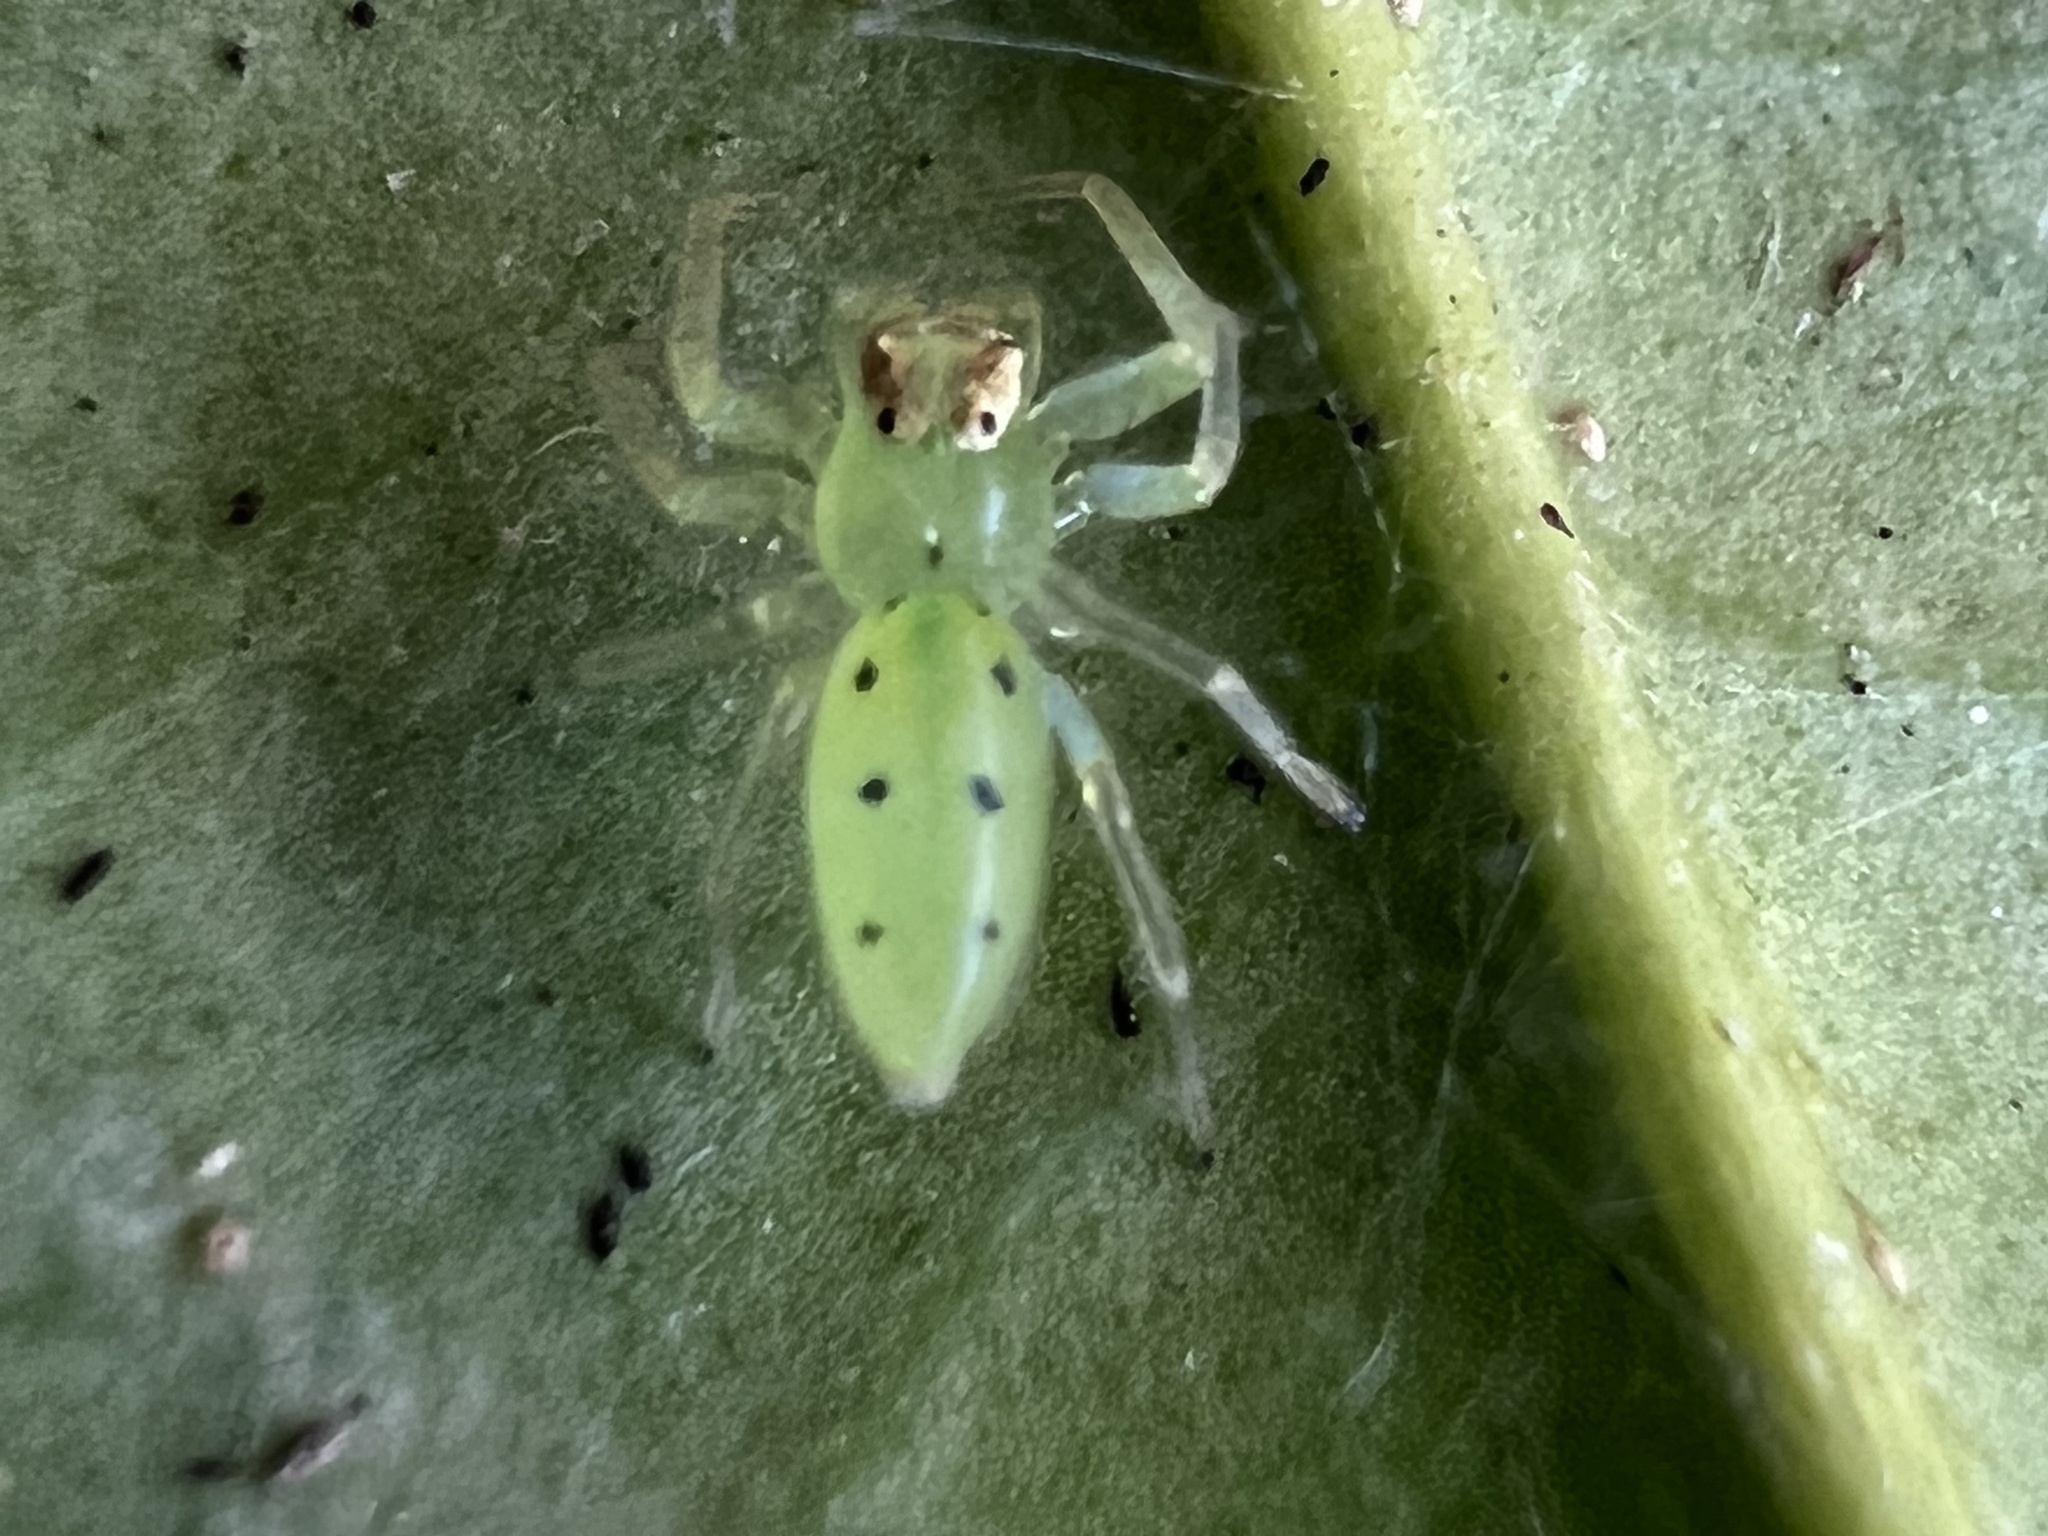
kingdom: Animalia
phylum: Arthropoda
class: Arachnida
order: Araneae
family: Salticidae
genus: Lyssomanes
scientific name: Lyssomanes viridis
